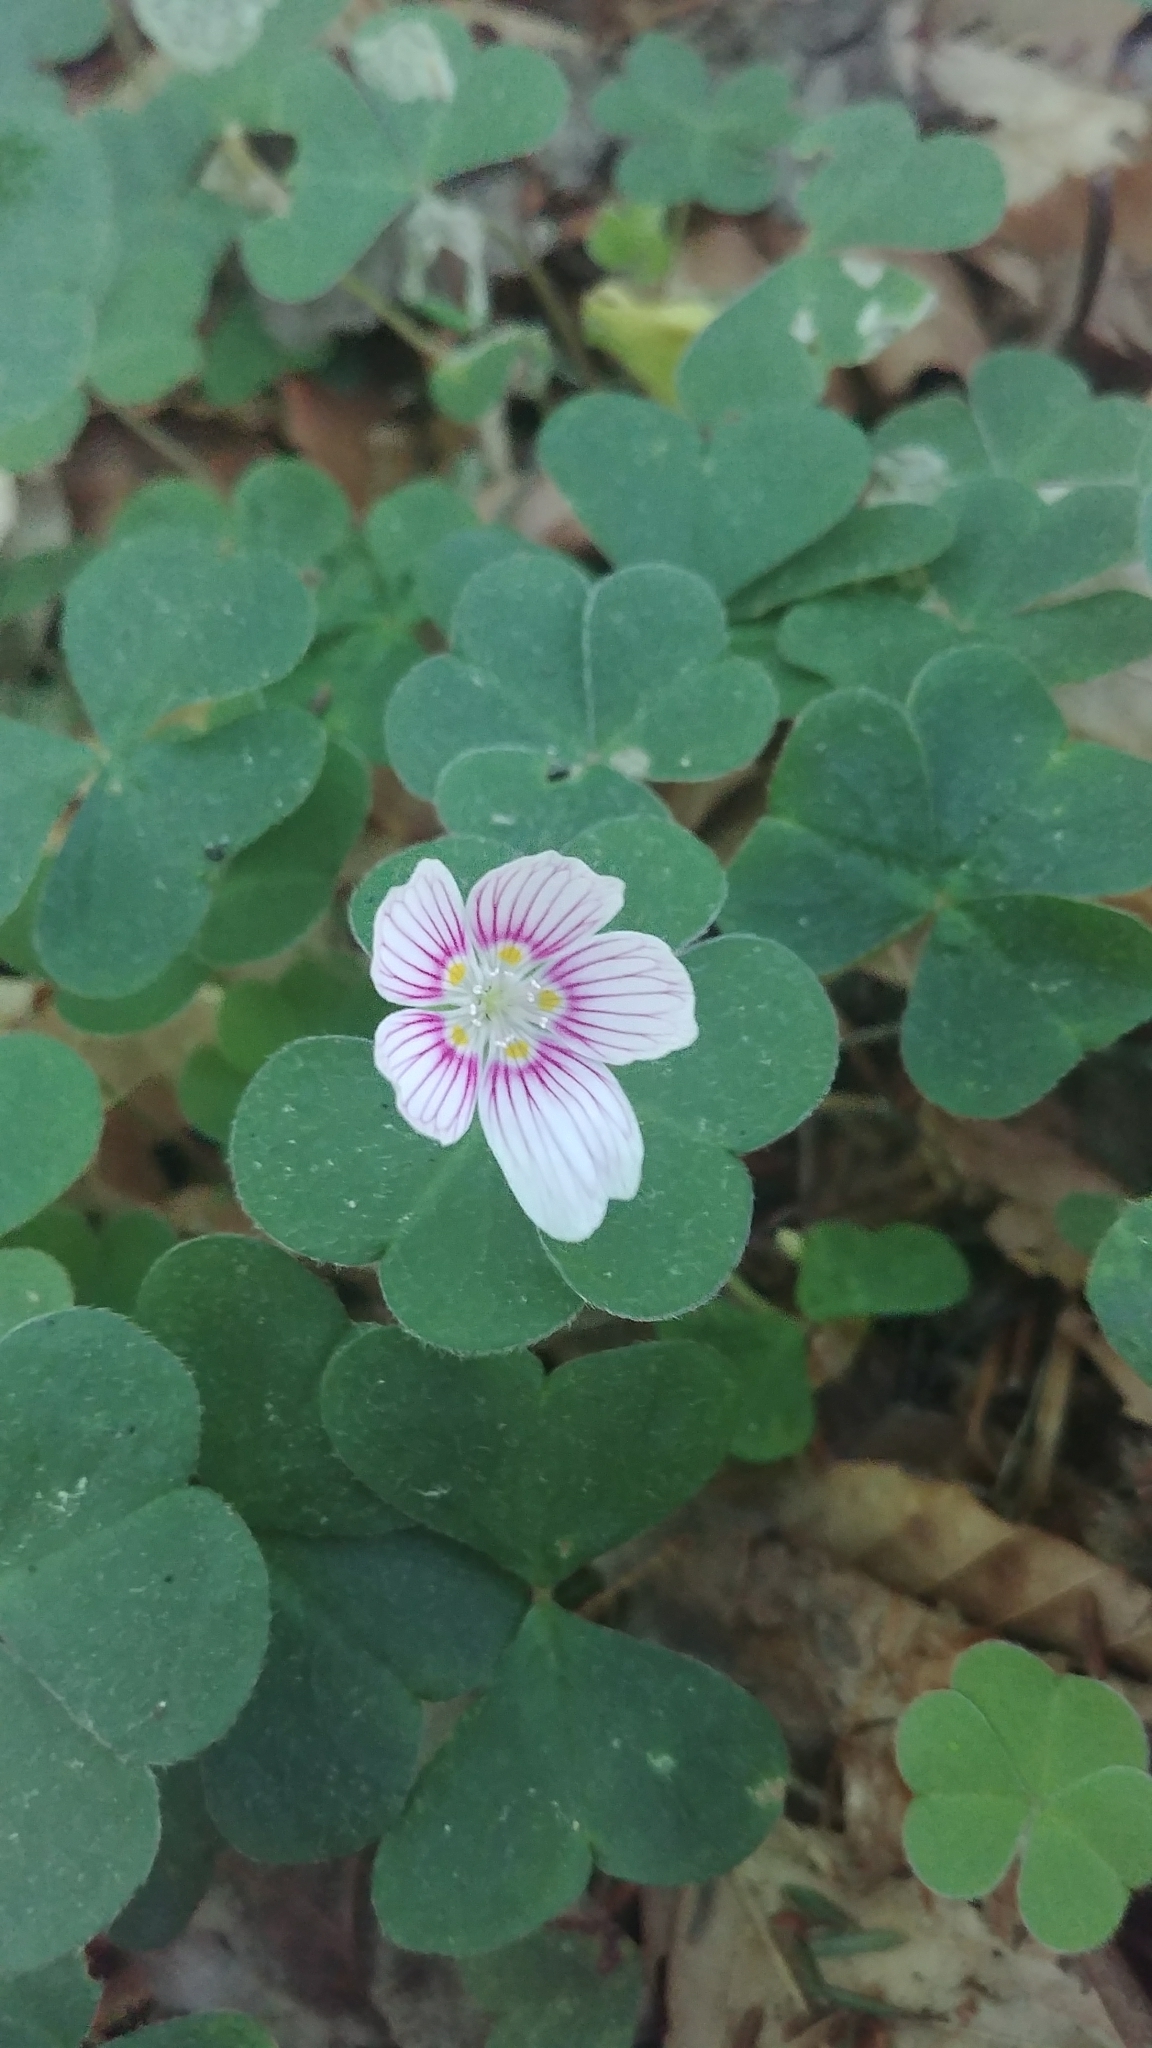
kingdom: Plantae
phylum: Tracheophyta
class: Magnoliopsida
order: Oxalidales
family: Oxalidaceae
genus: Oxalis
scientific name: Oxalis montana
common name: American wood-sorrel
